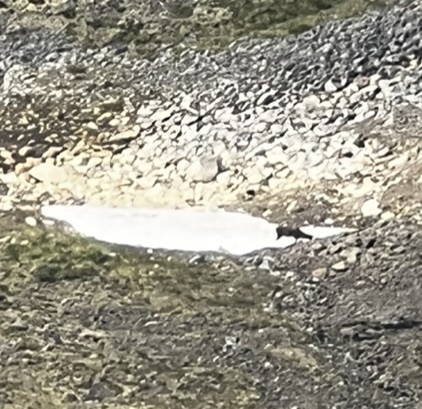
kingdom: Animalia
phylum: Chordata
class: Mammalia
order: Artiodactyla
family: Cervidae
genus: Rangifer
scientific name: Rangifer tarandus
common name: Reindeer
